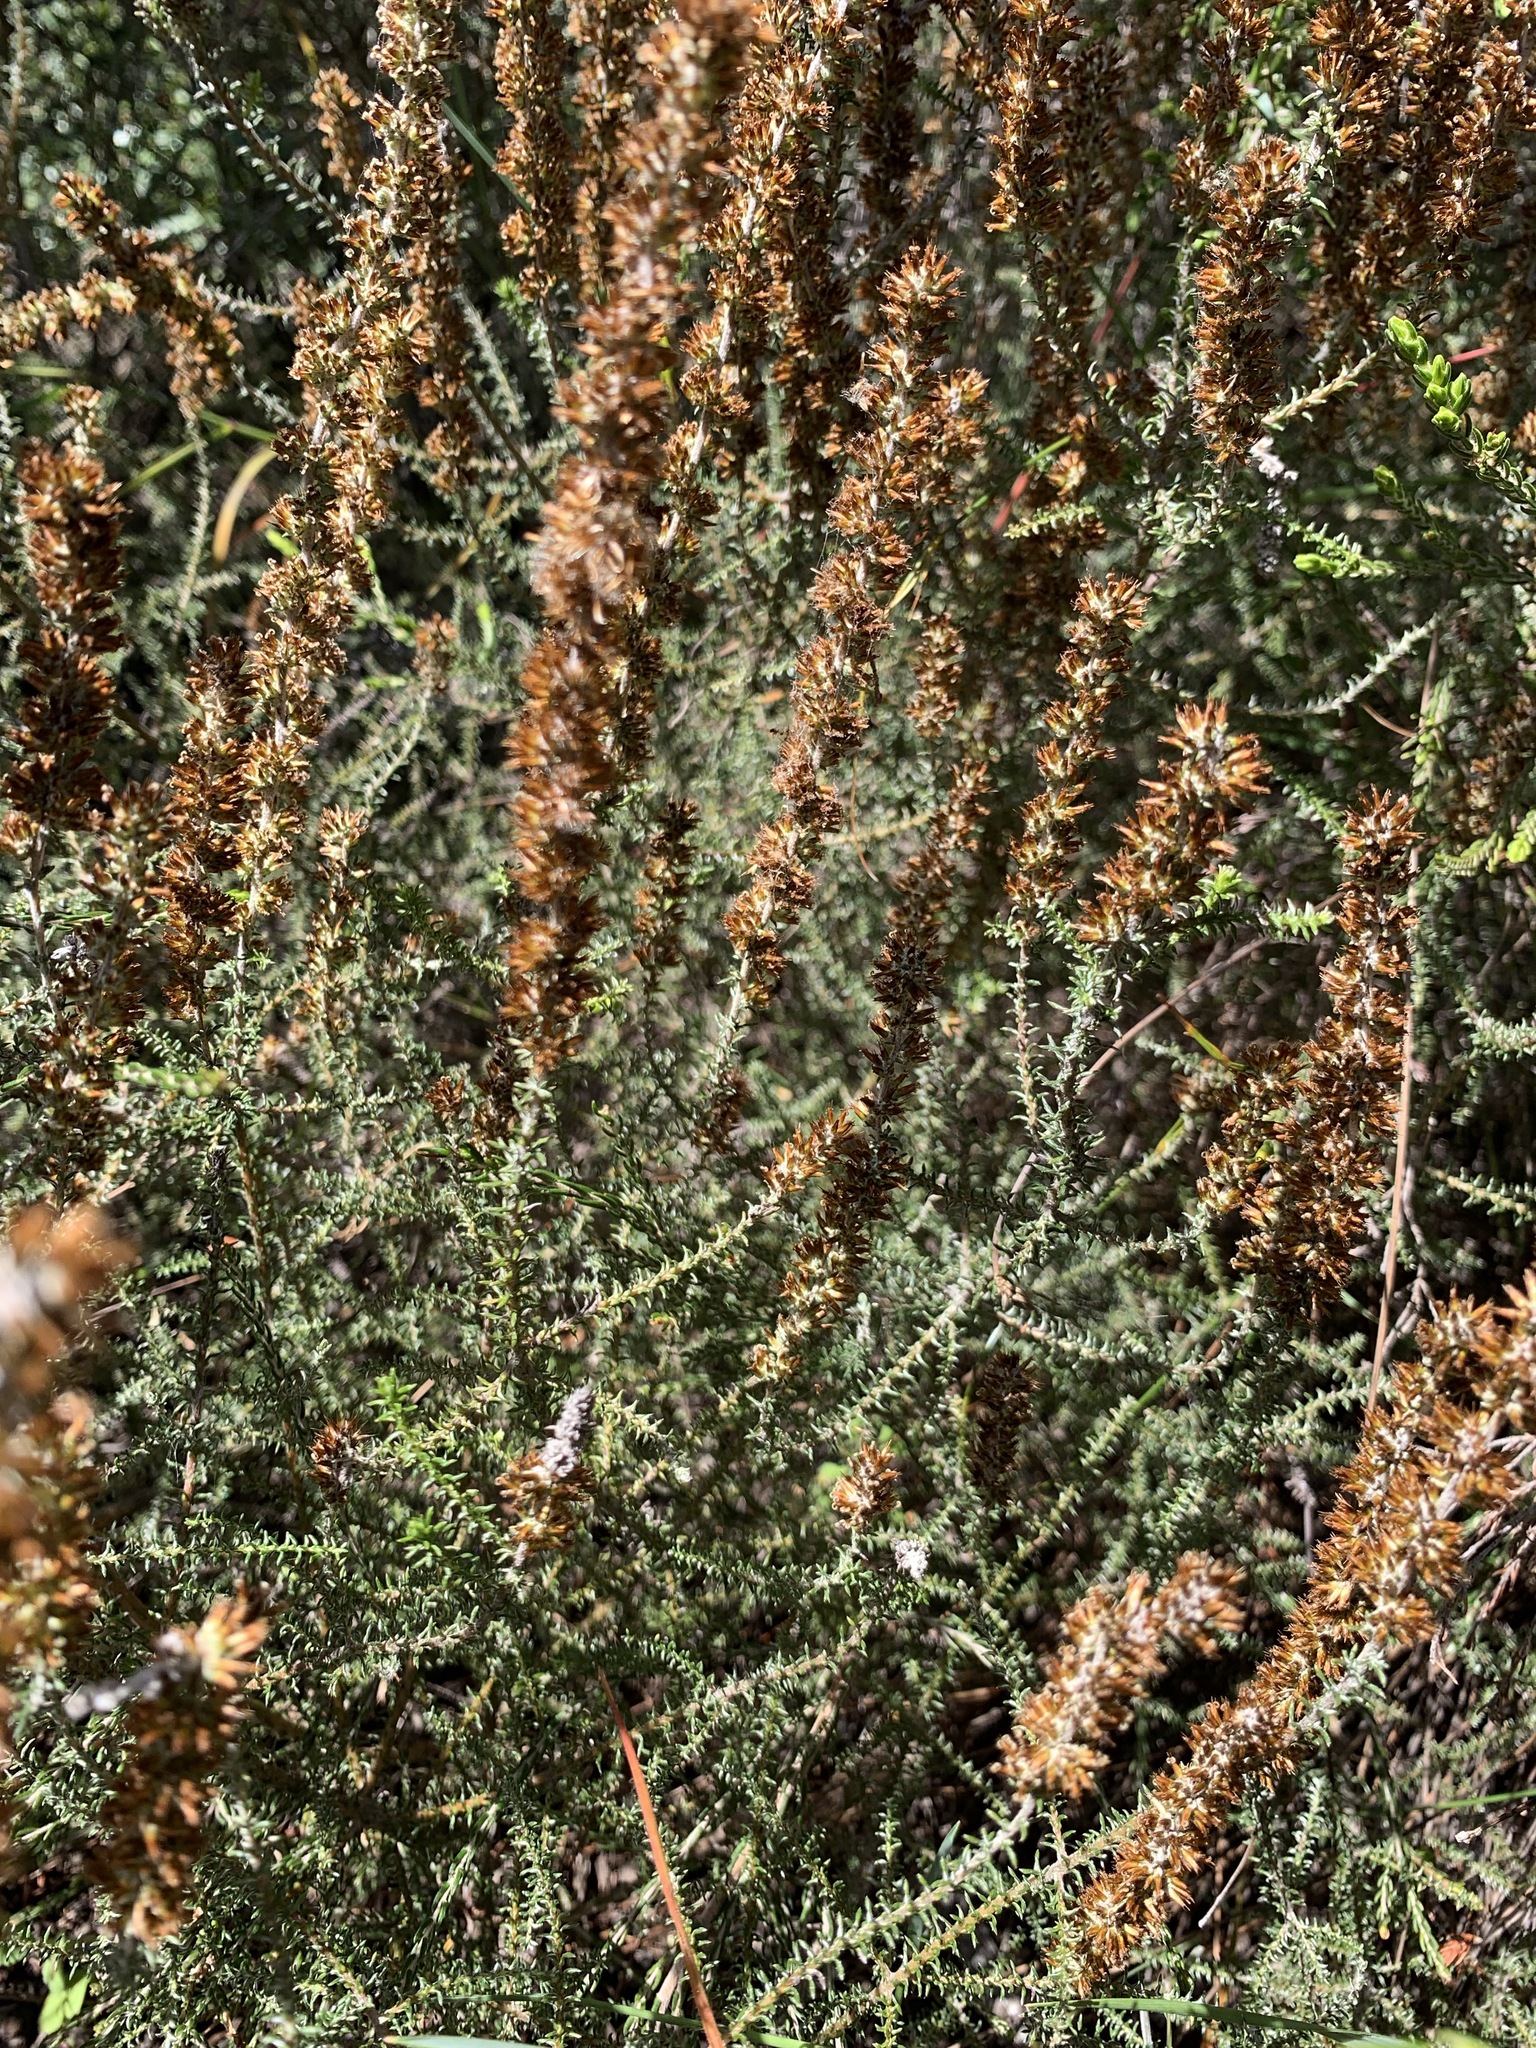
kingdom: Plantae
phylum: Tracheophyta
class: Magnoliopsida
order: Asterales
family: Asteraceae
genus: Seriphium
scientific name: Seriphium cinereum
